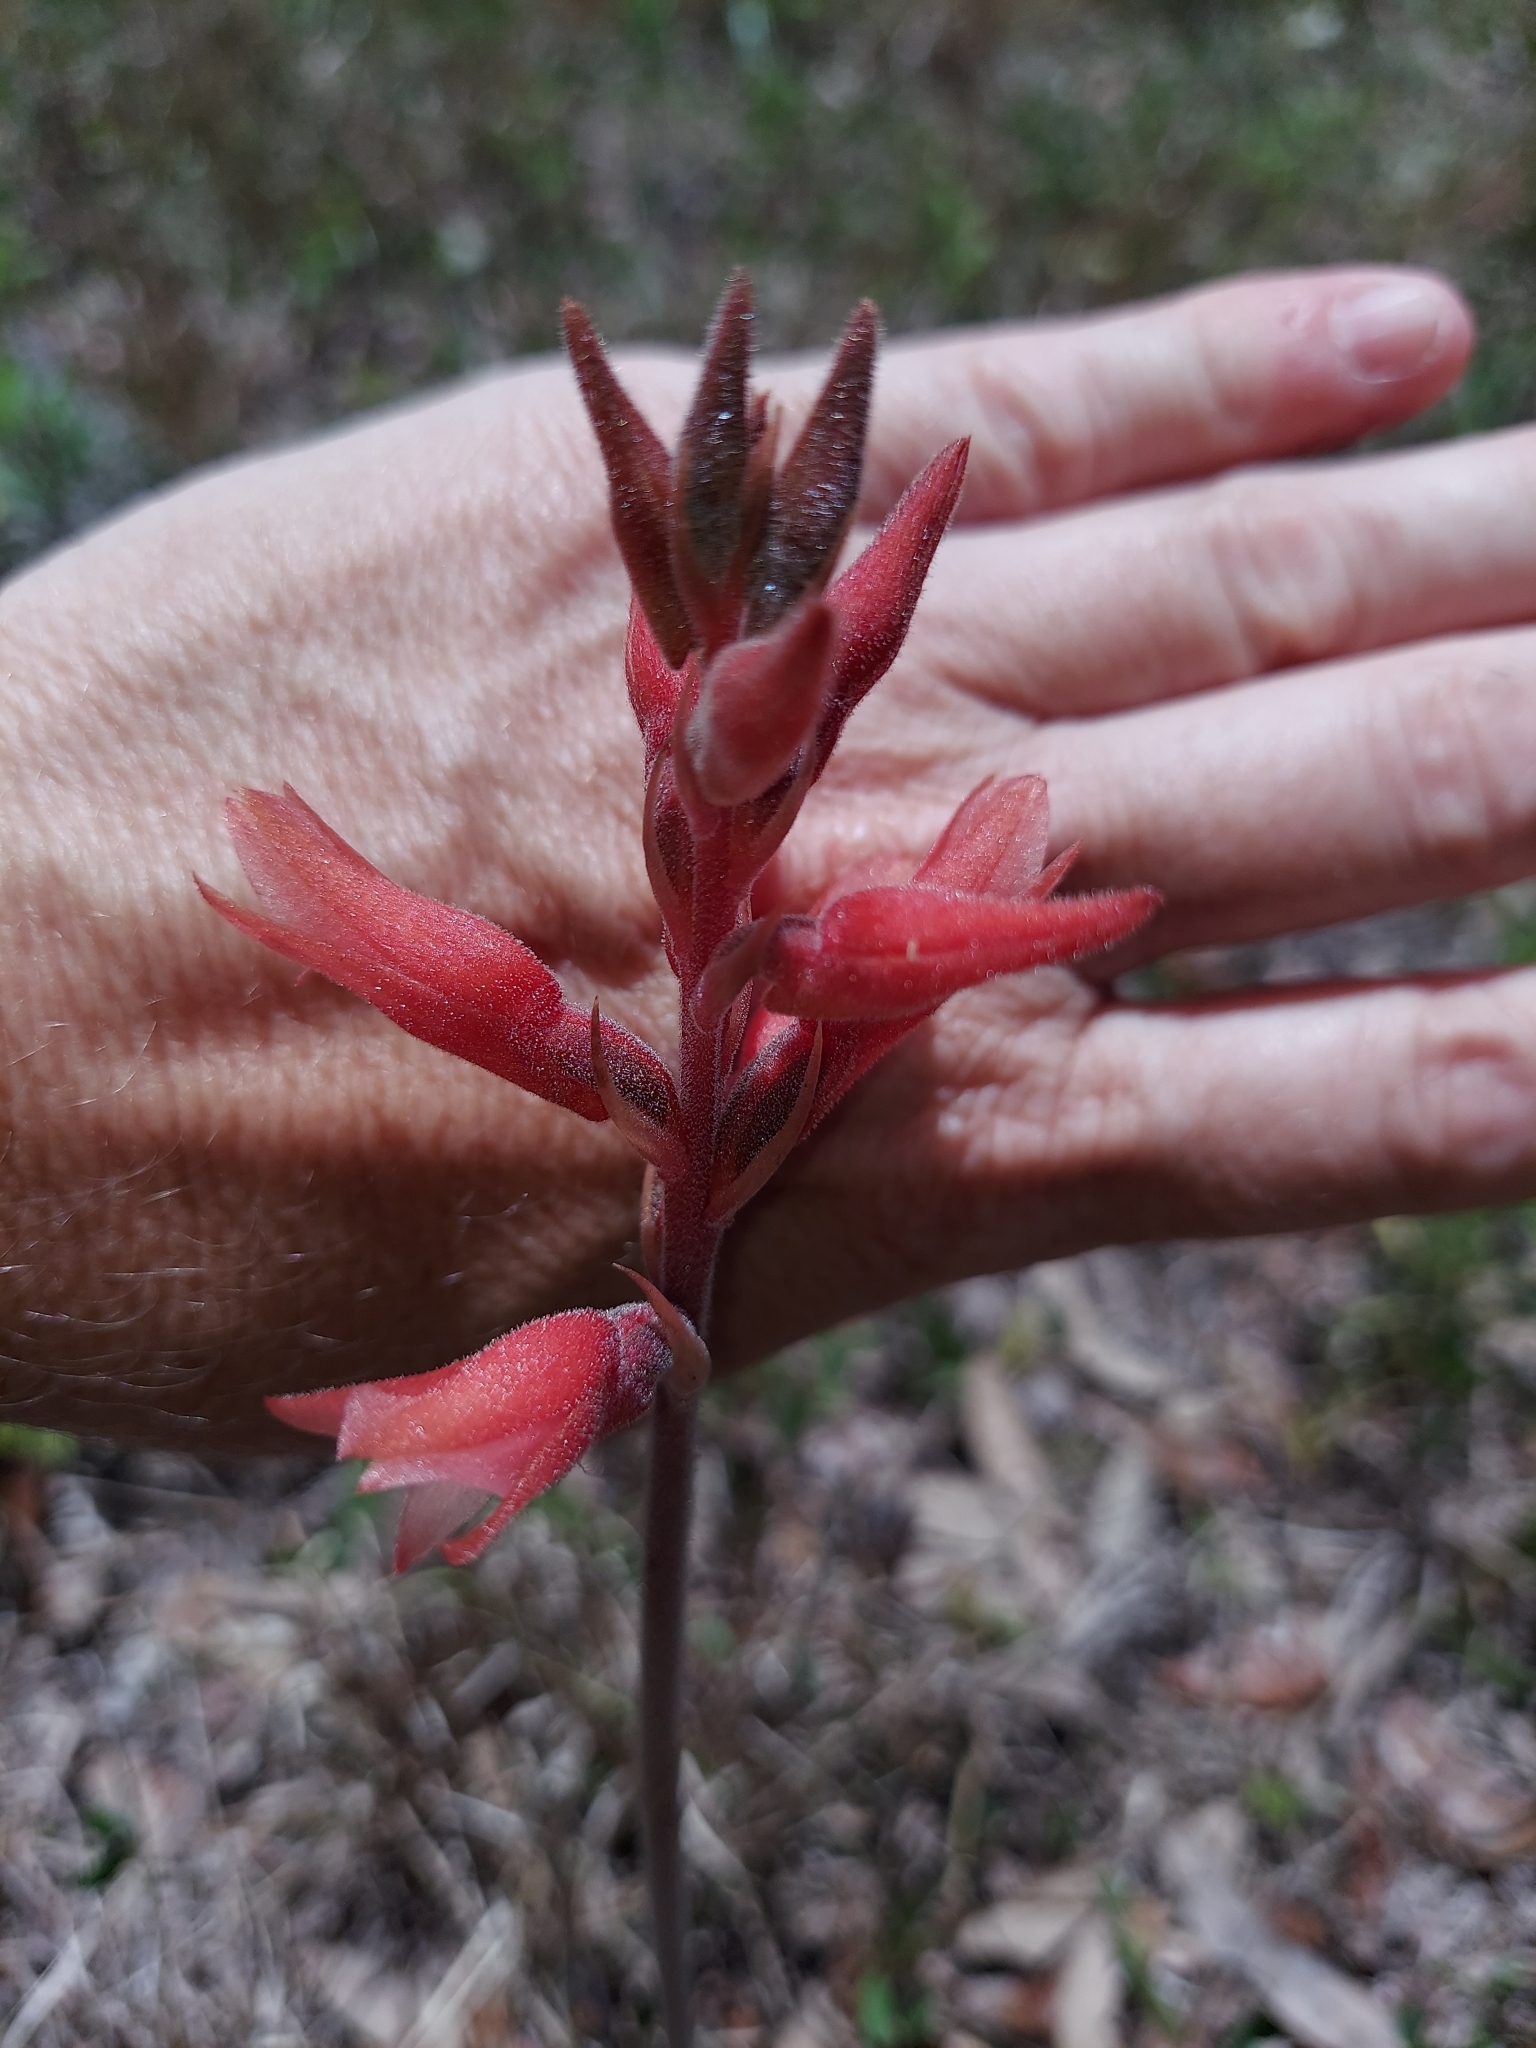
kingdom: Plantae
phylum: Tracheophyta
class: Liliopsida
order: Asparagales
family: Orchidaceae
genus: Sacoila
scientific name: Sacoila lanceolata
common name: Leafless beaked ladiestresses
